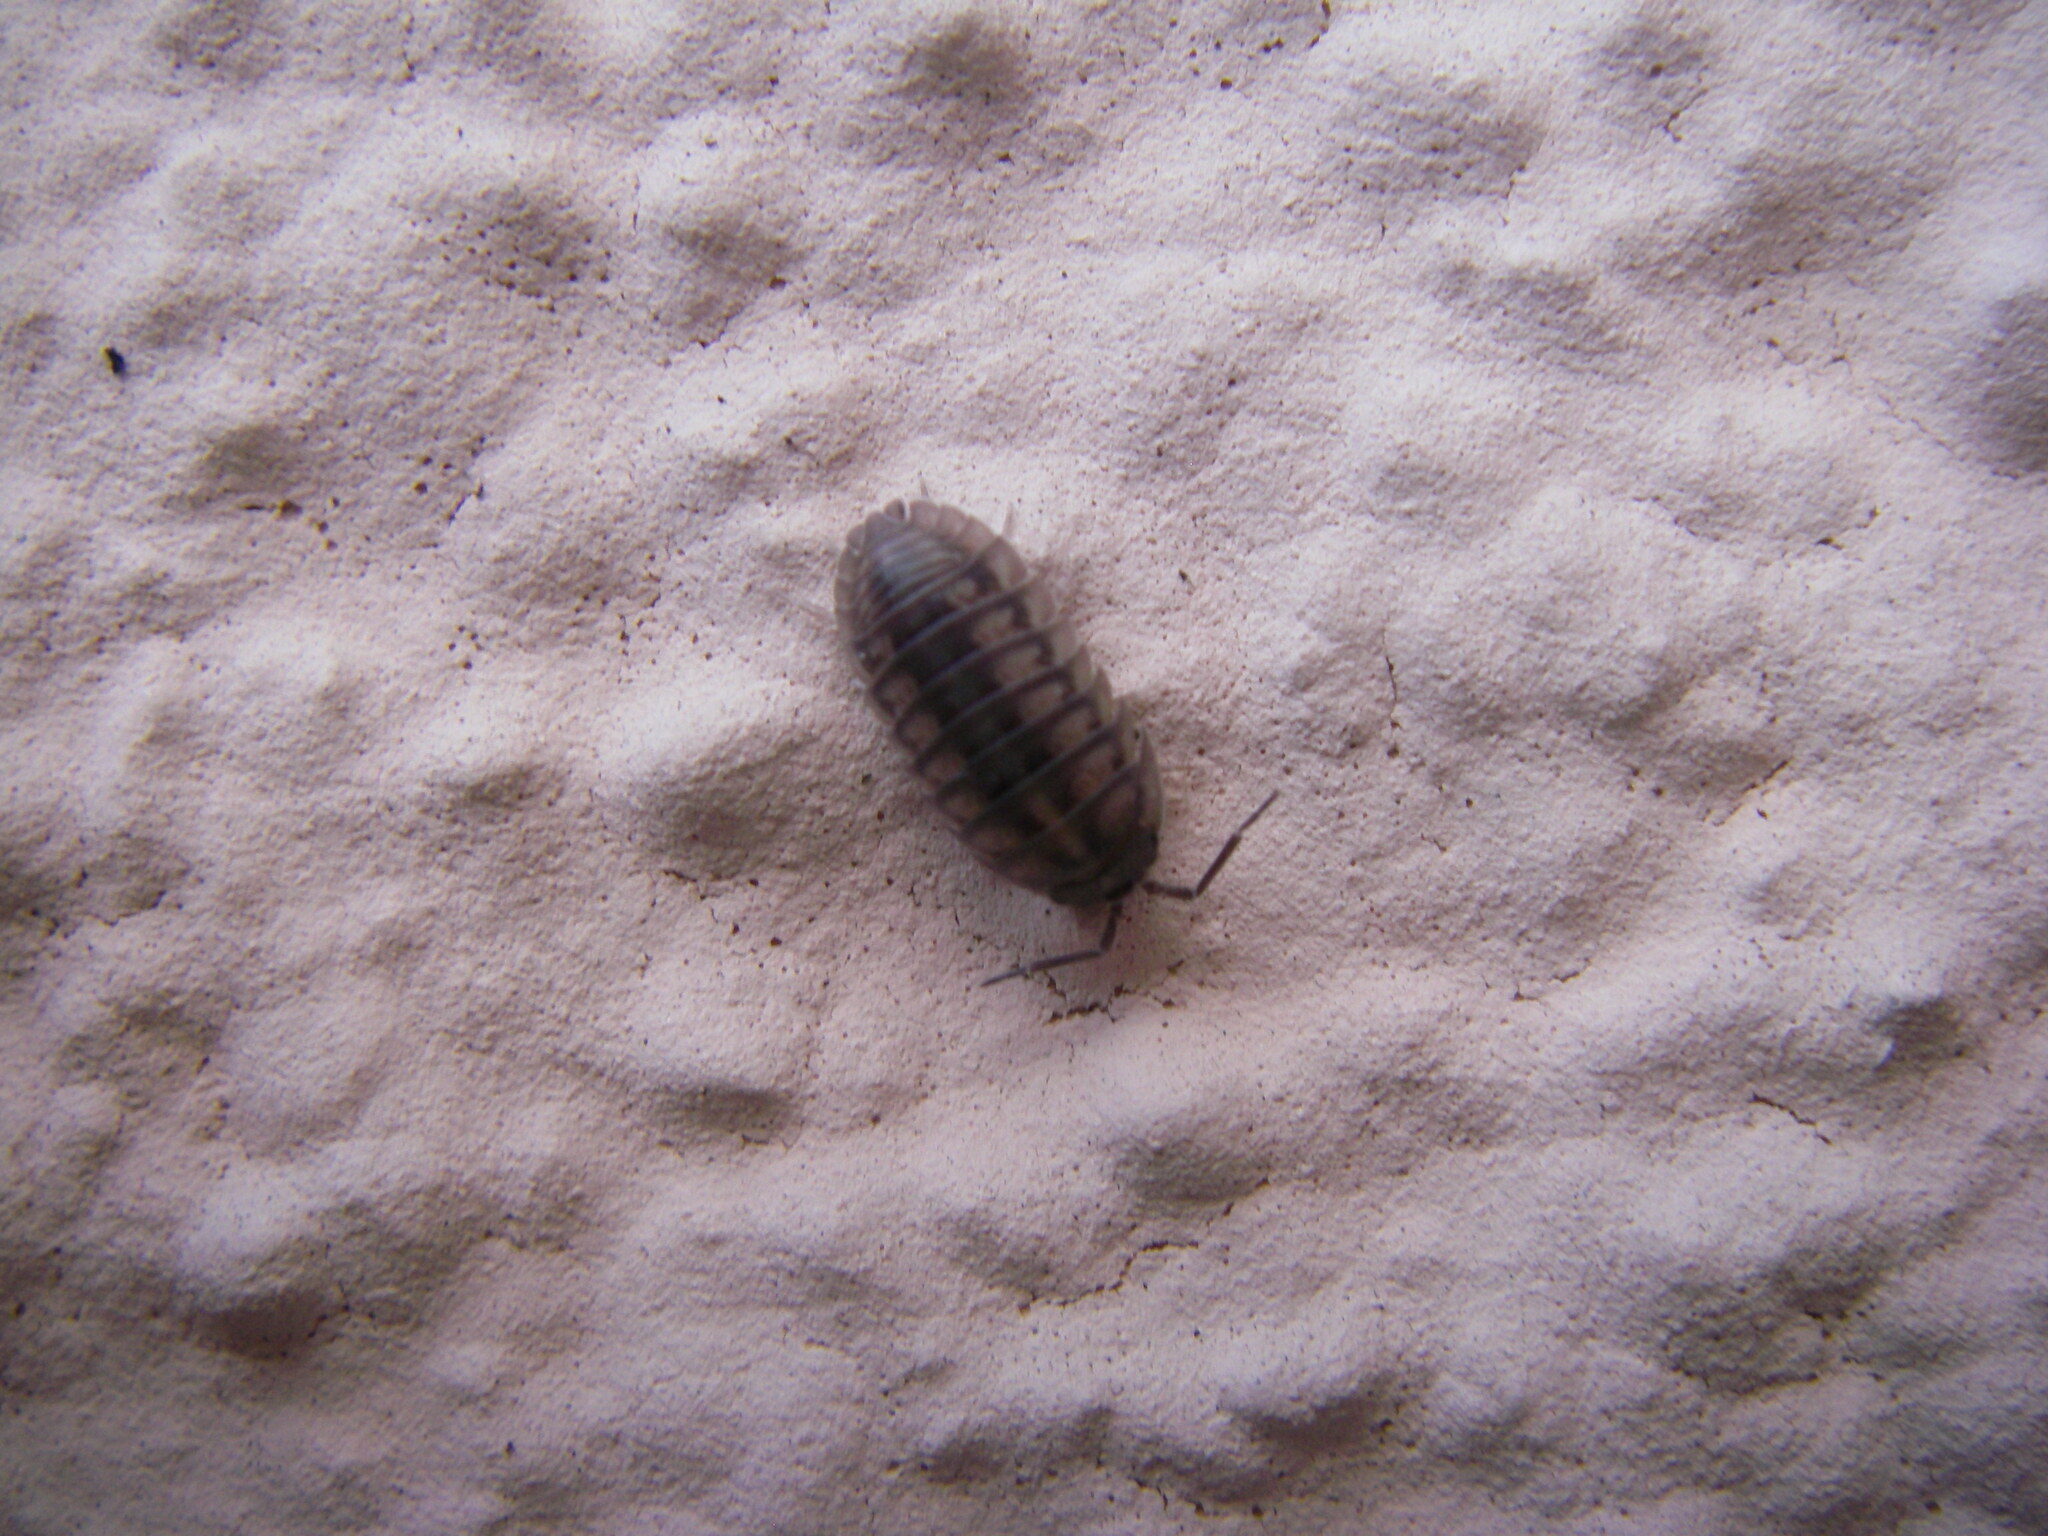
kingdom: Animalia
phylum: Arthropoda
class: Malacostraca
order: Isopoda
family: Armadillidiidae
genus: Armadillidium
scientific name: Armadillidium nasatum
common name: Isopod
